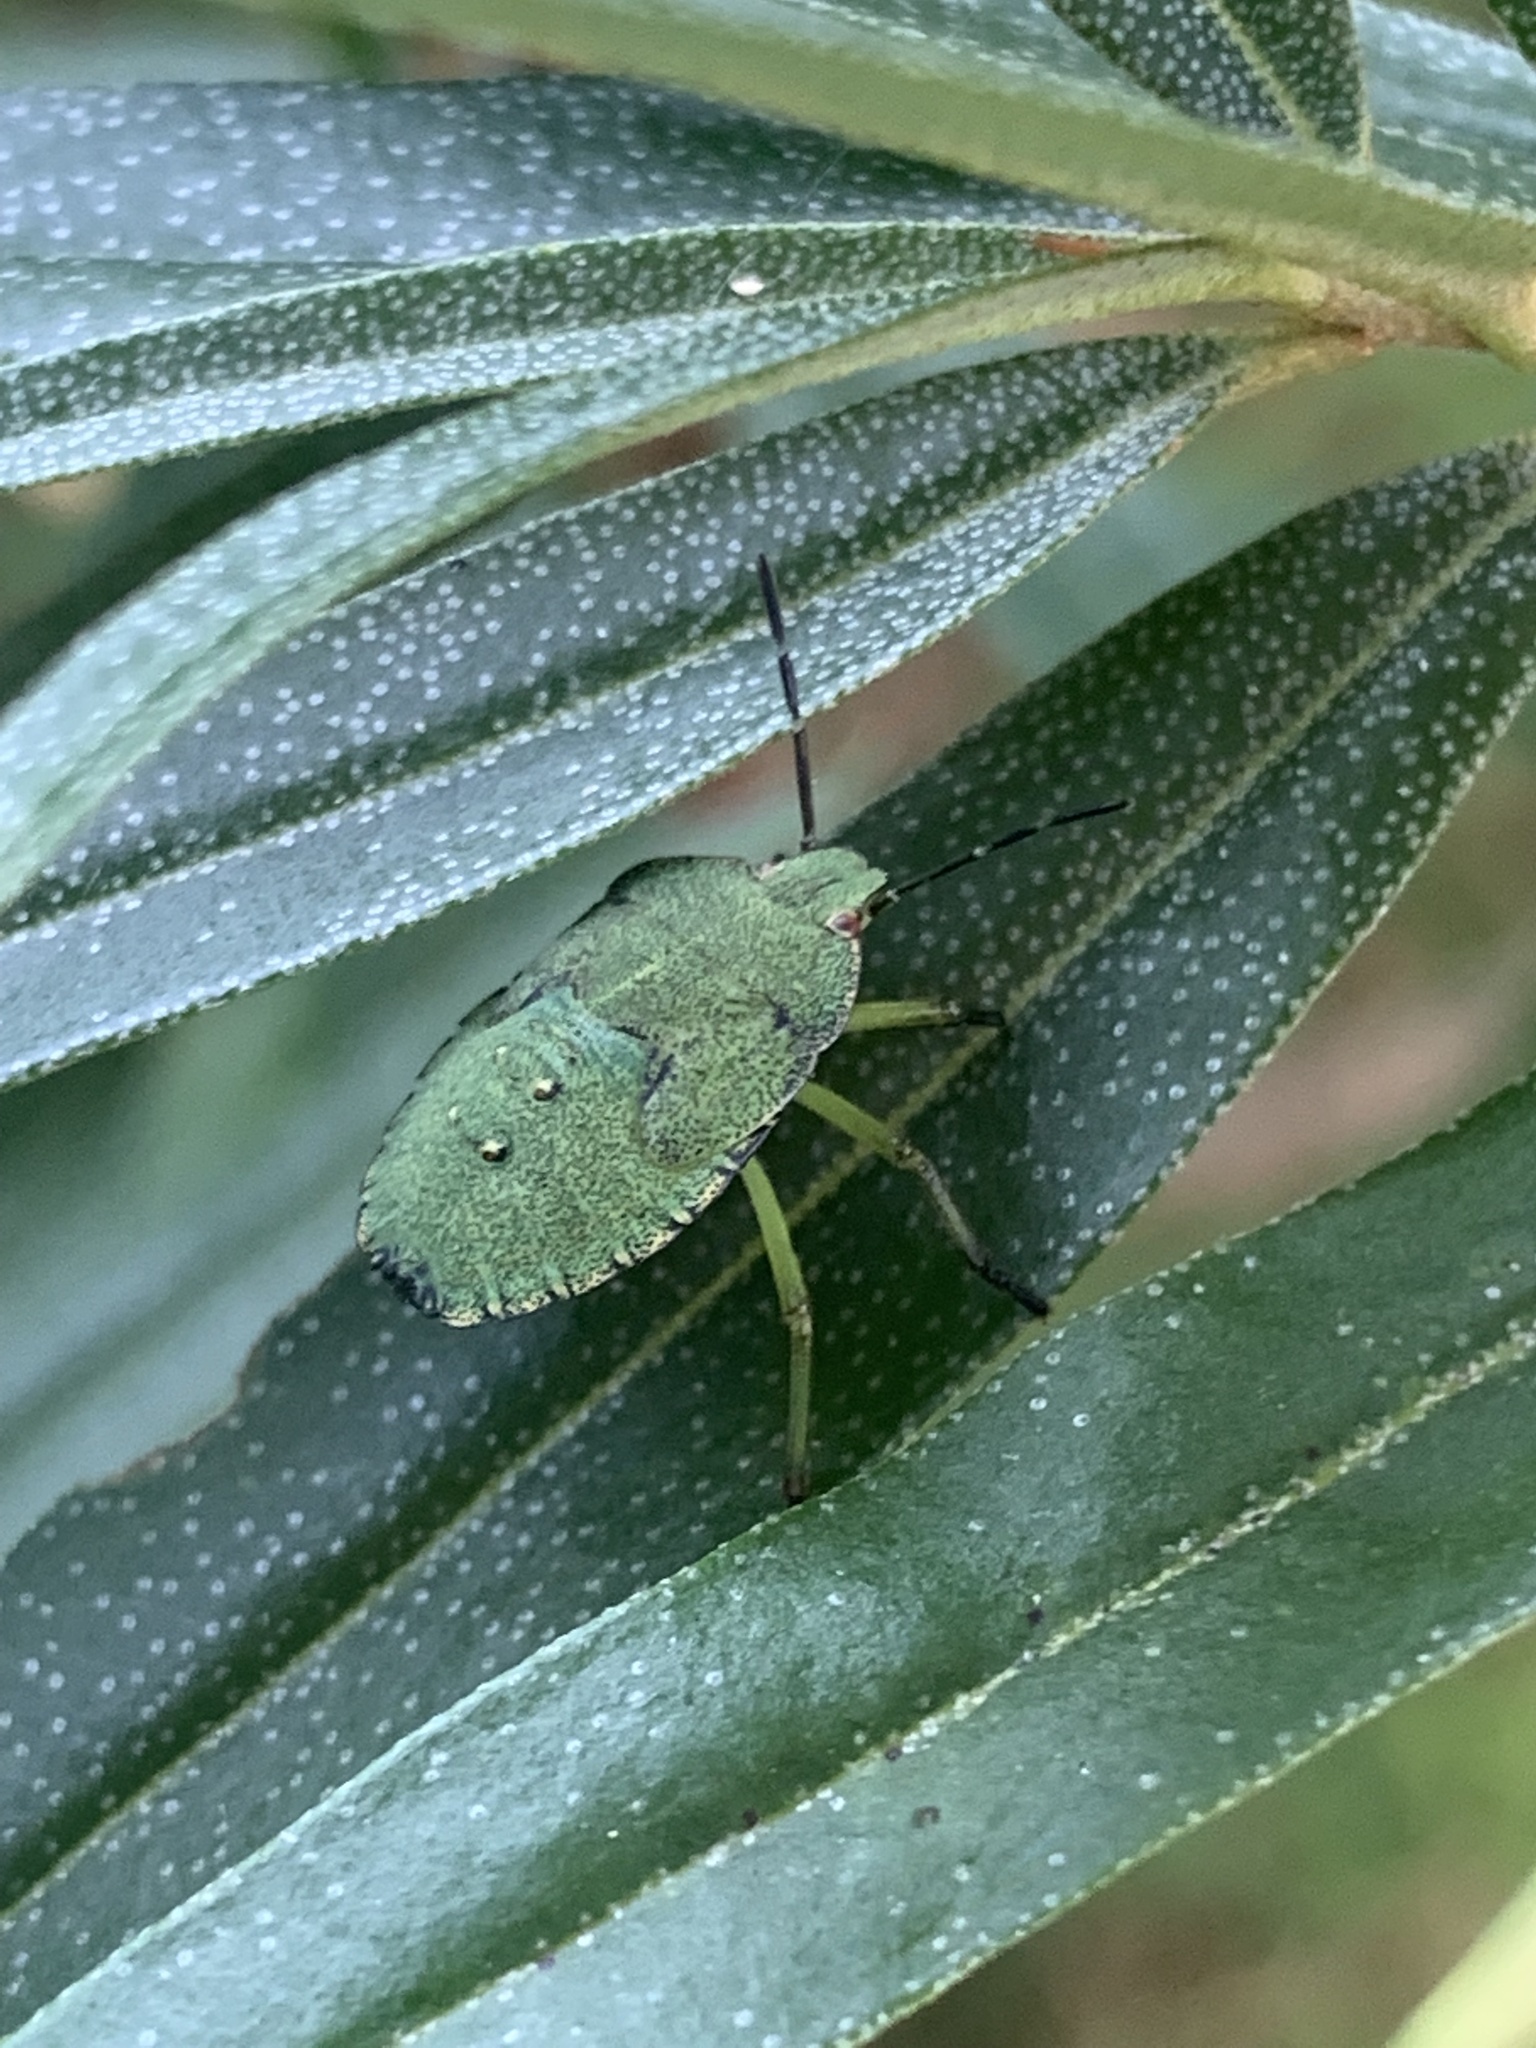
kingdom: Animalia
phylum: Arthropoda
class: Insecta
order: Hemiptera
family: Pentatomidae
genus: Palomena
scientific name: Palomena prasina
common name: Green shieldbug
